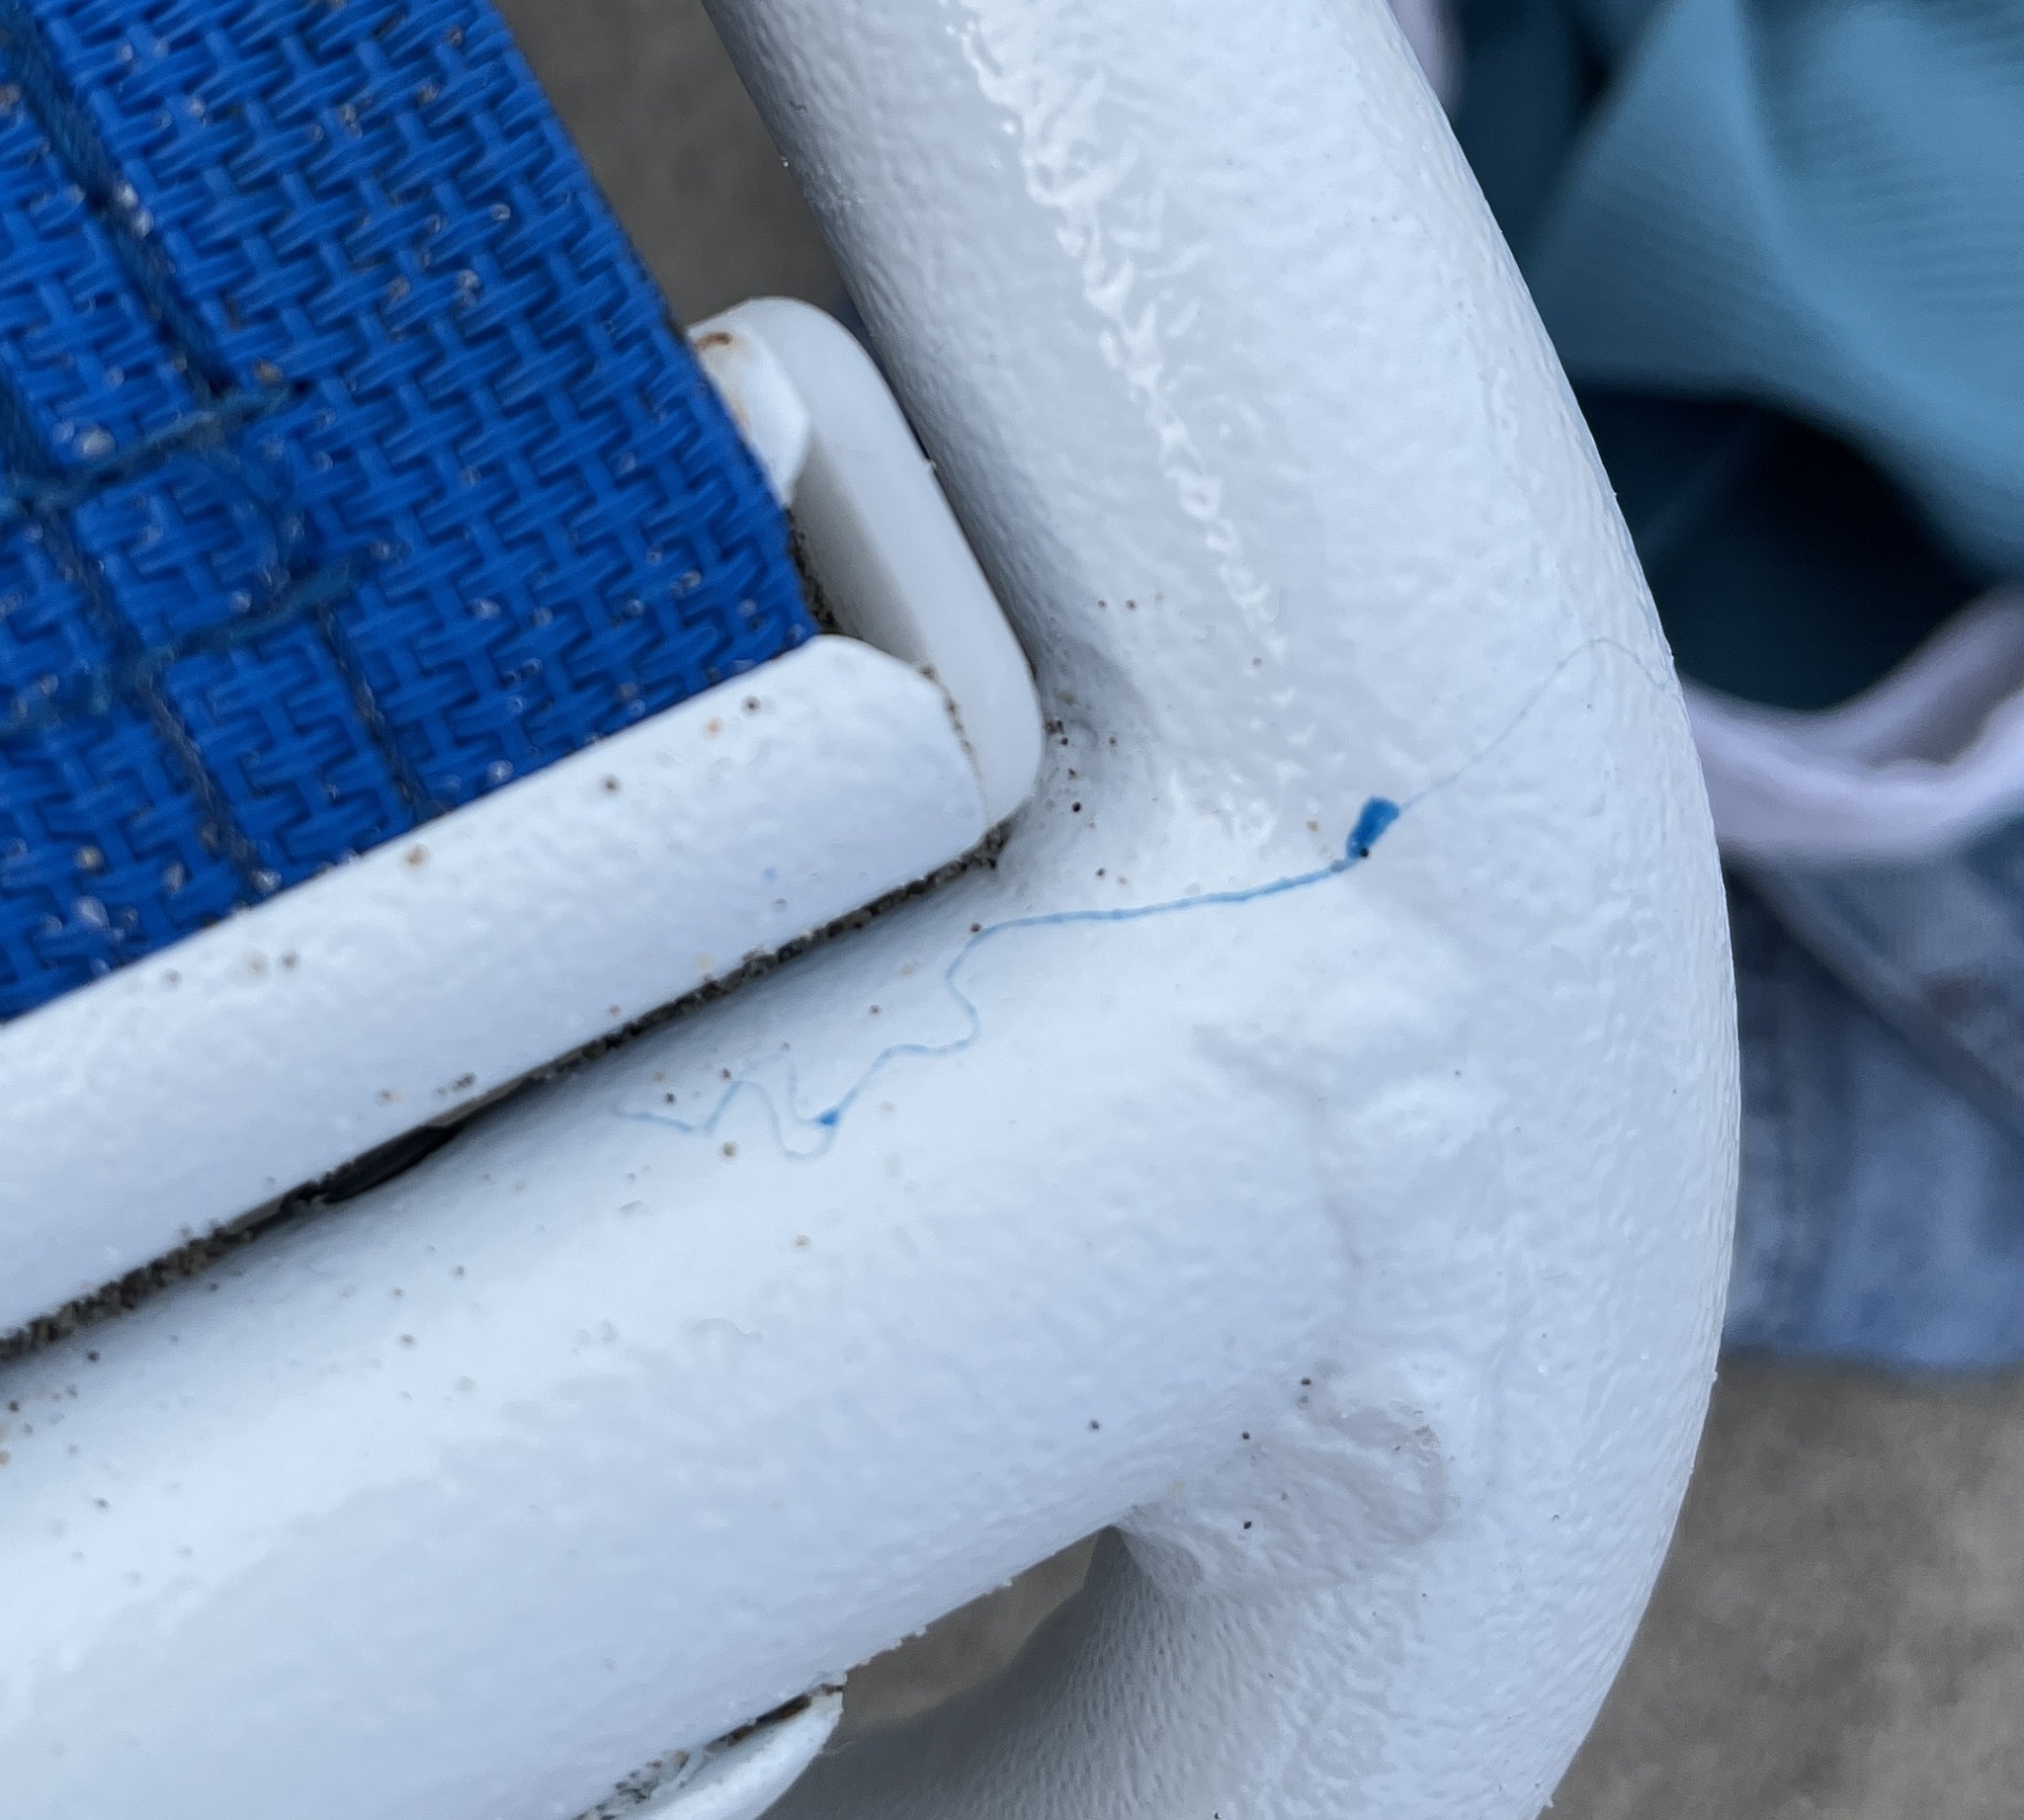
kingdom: Animalia
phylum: Cnidaria
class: Hydrozoa
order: Siphonophorae
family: Physaliidae
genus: Physalia
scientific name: Physalia physalis
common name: Portuguese man-of-war
